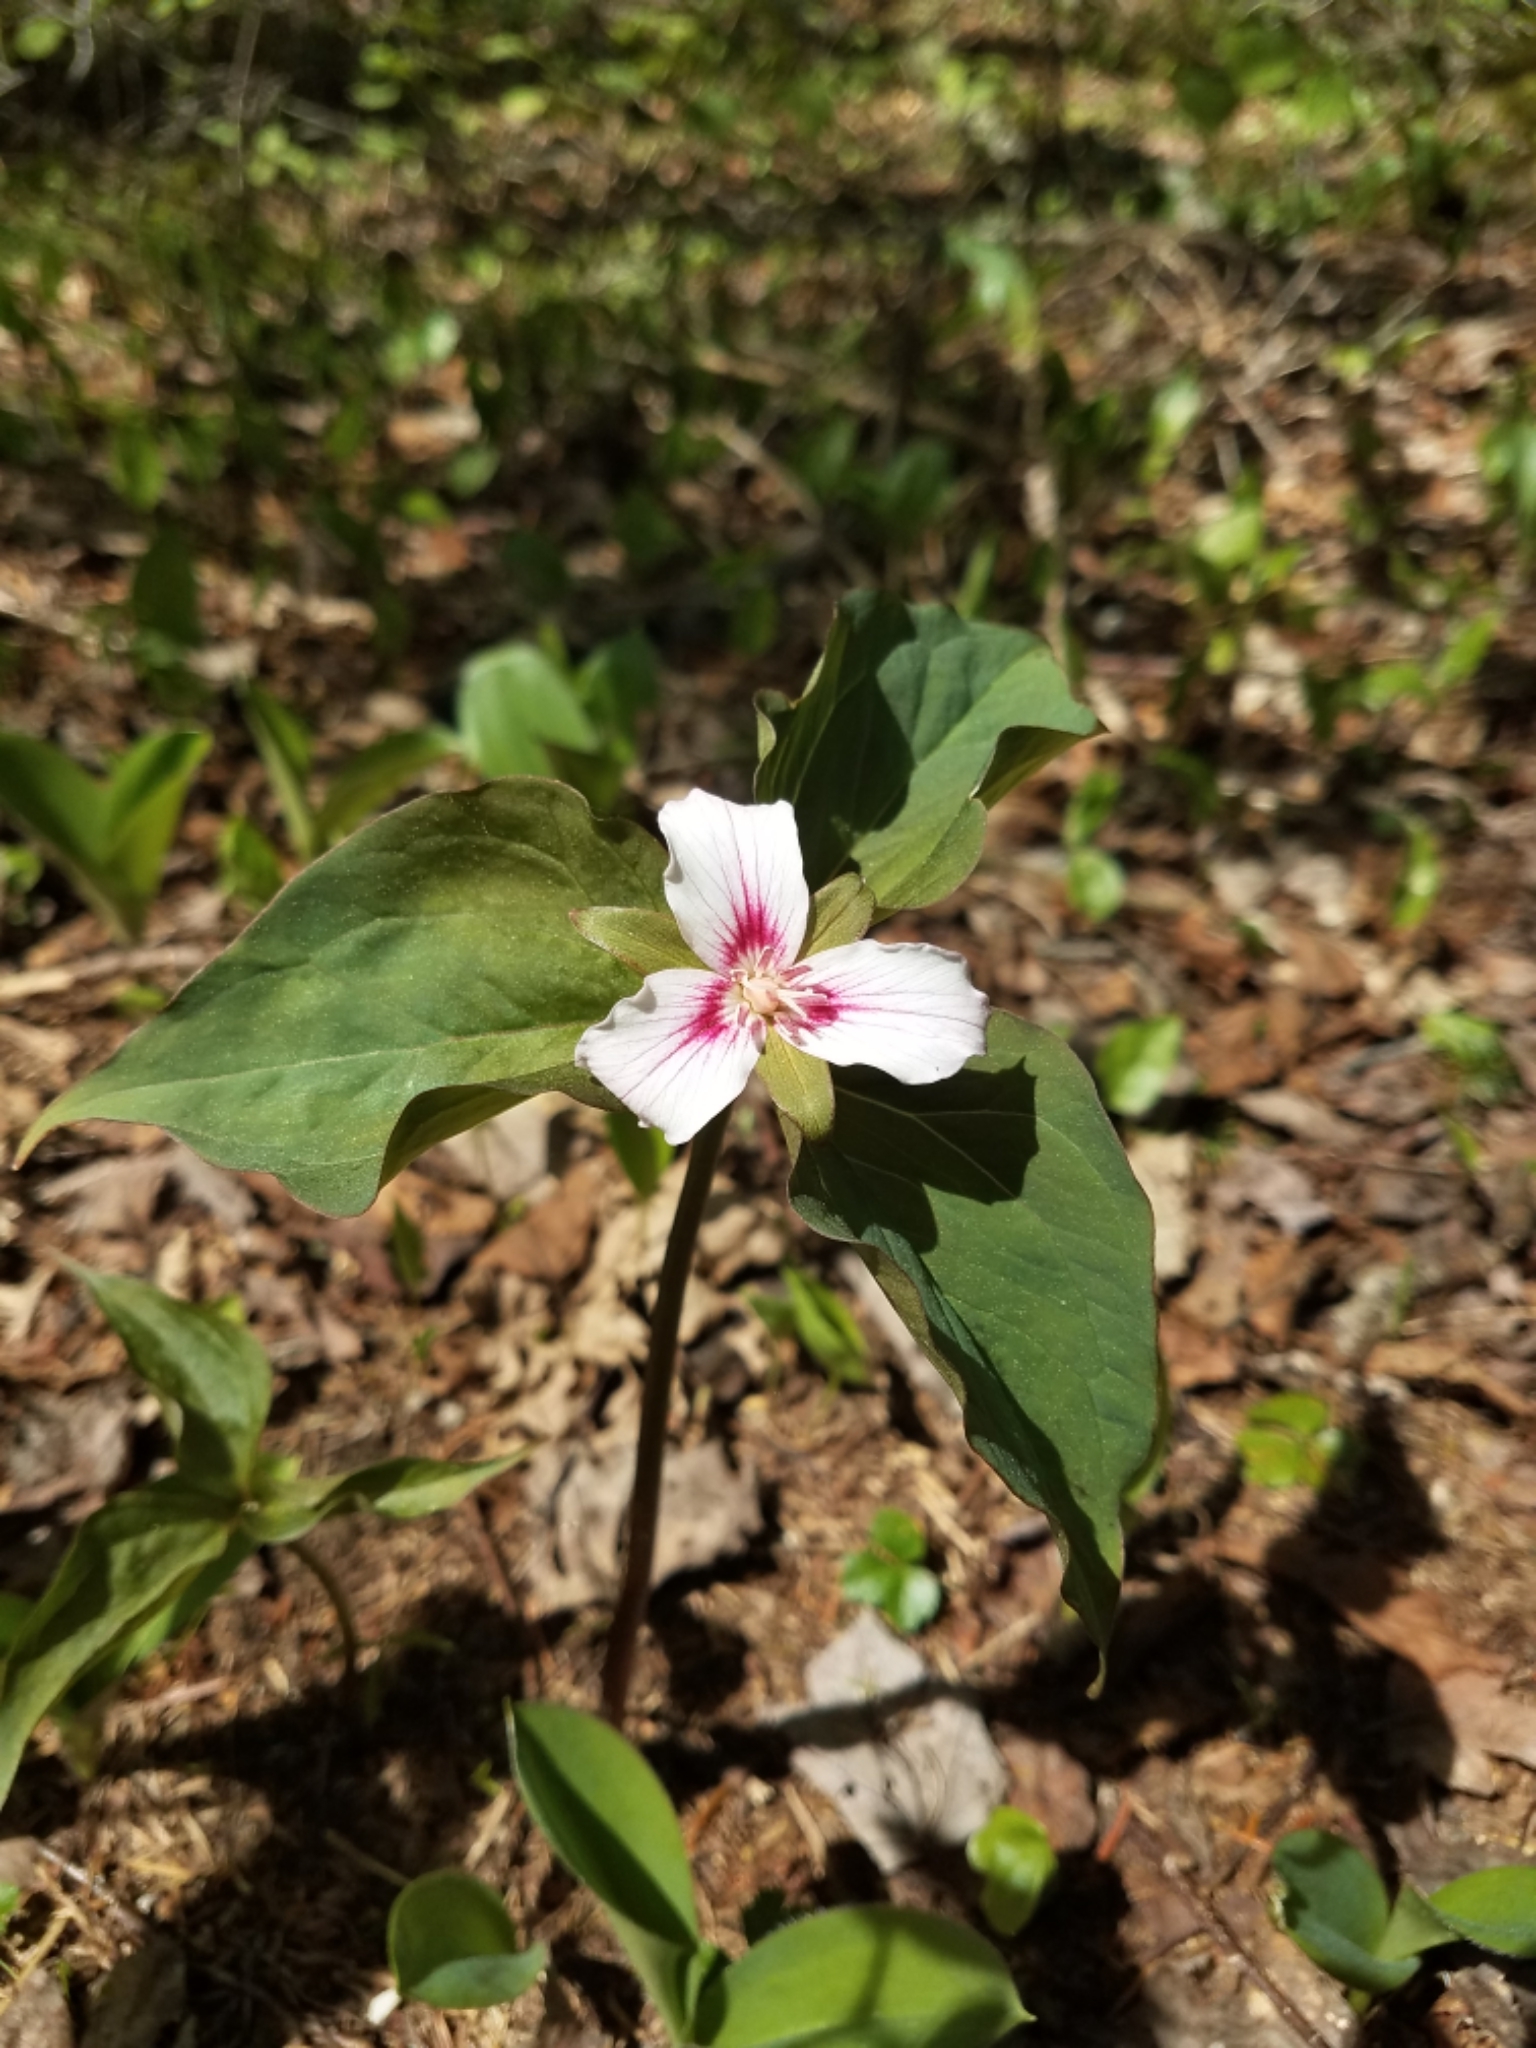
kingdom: Plantae
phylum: Tracheophyta
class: Liliopsida
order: Liliales
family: Melanthiaceae
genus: Trillium
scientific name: Trillium undulatum
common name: Paint trillium
